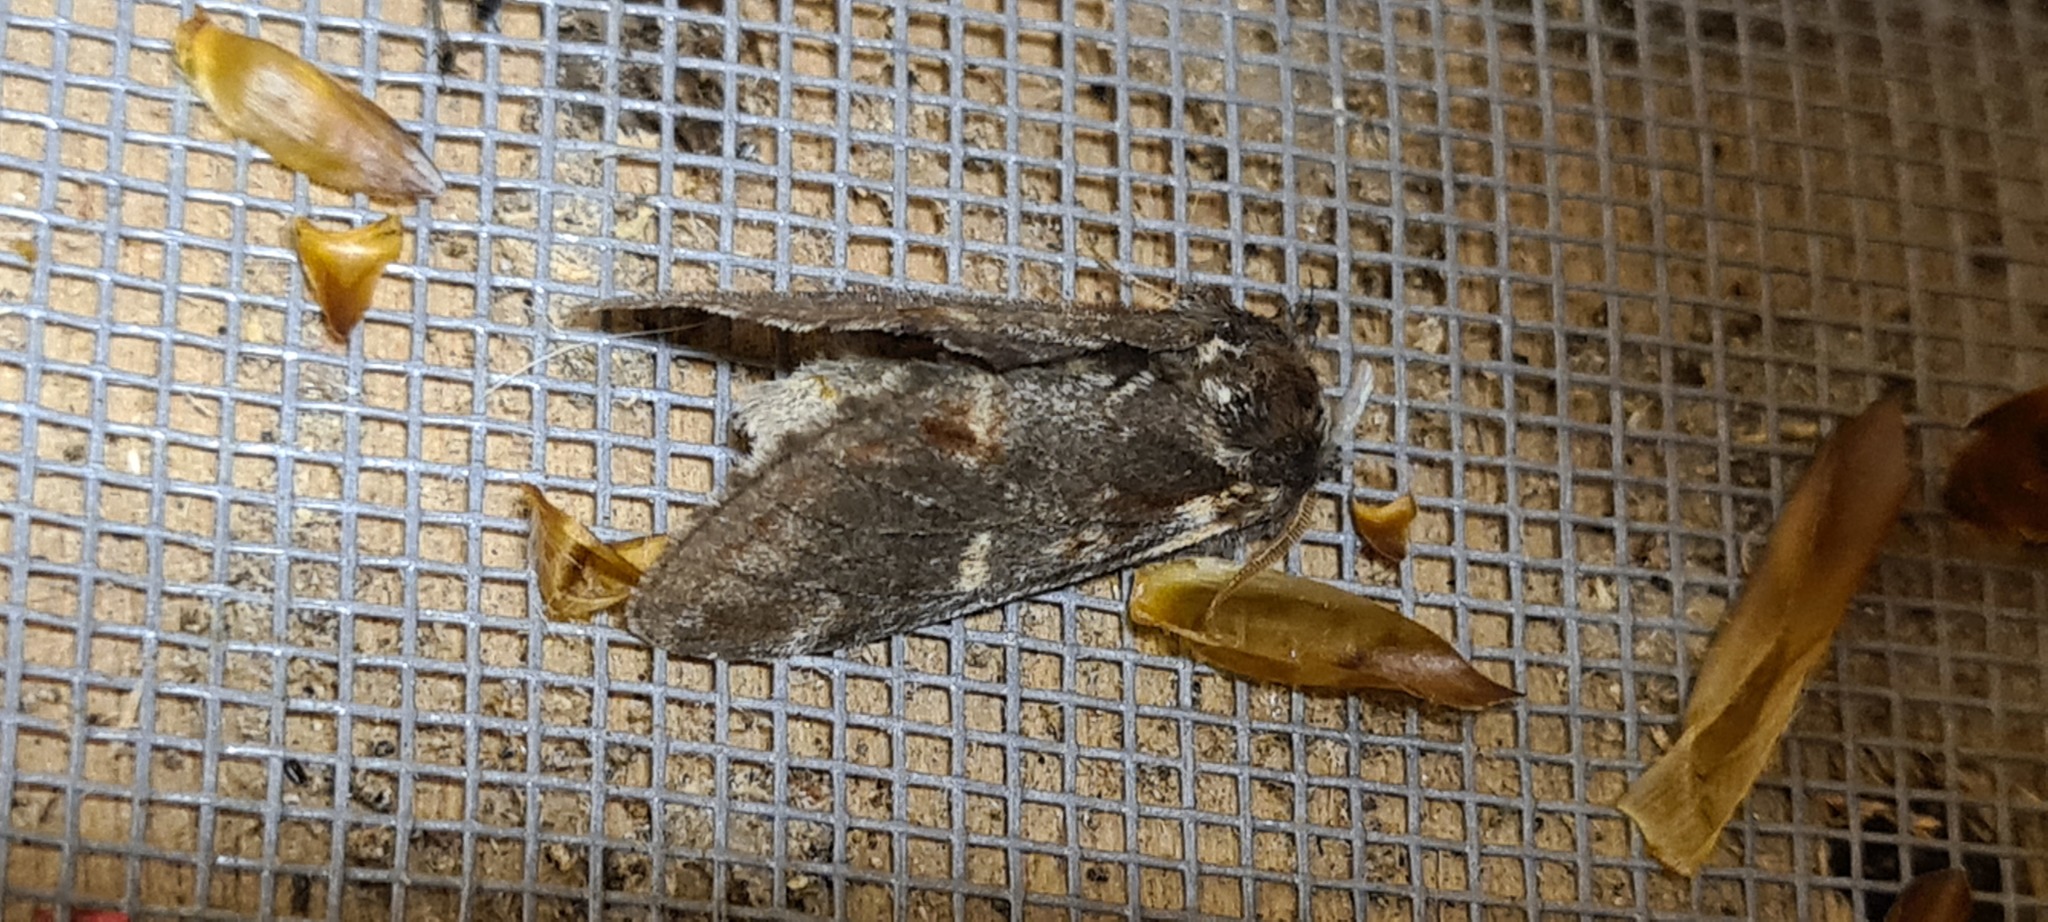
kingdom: Animalia
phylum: Arthropoda
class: Insecta
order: Lepidoptera
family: Notodontidae
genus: Notodonta
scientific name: Notodonta dromedarius
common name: Iron prominent
